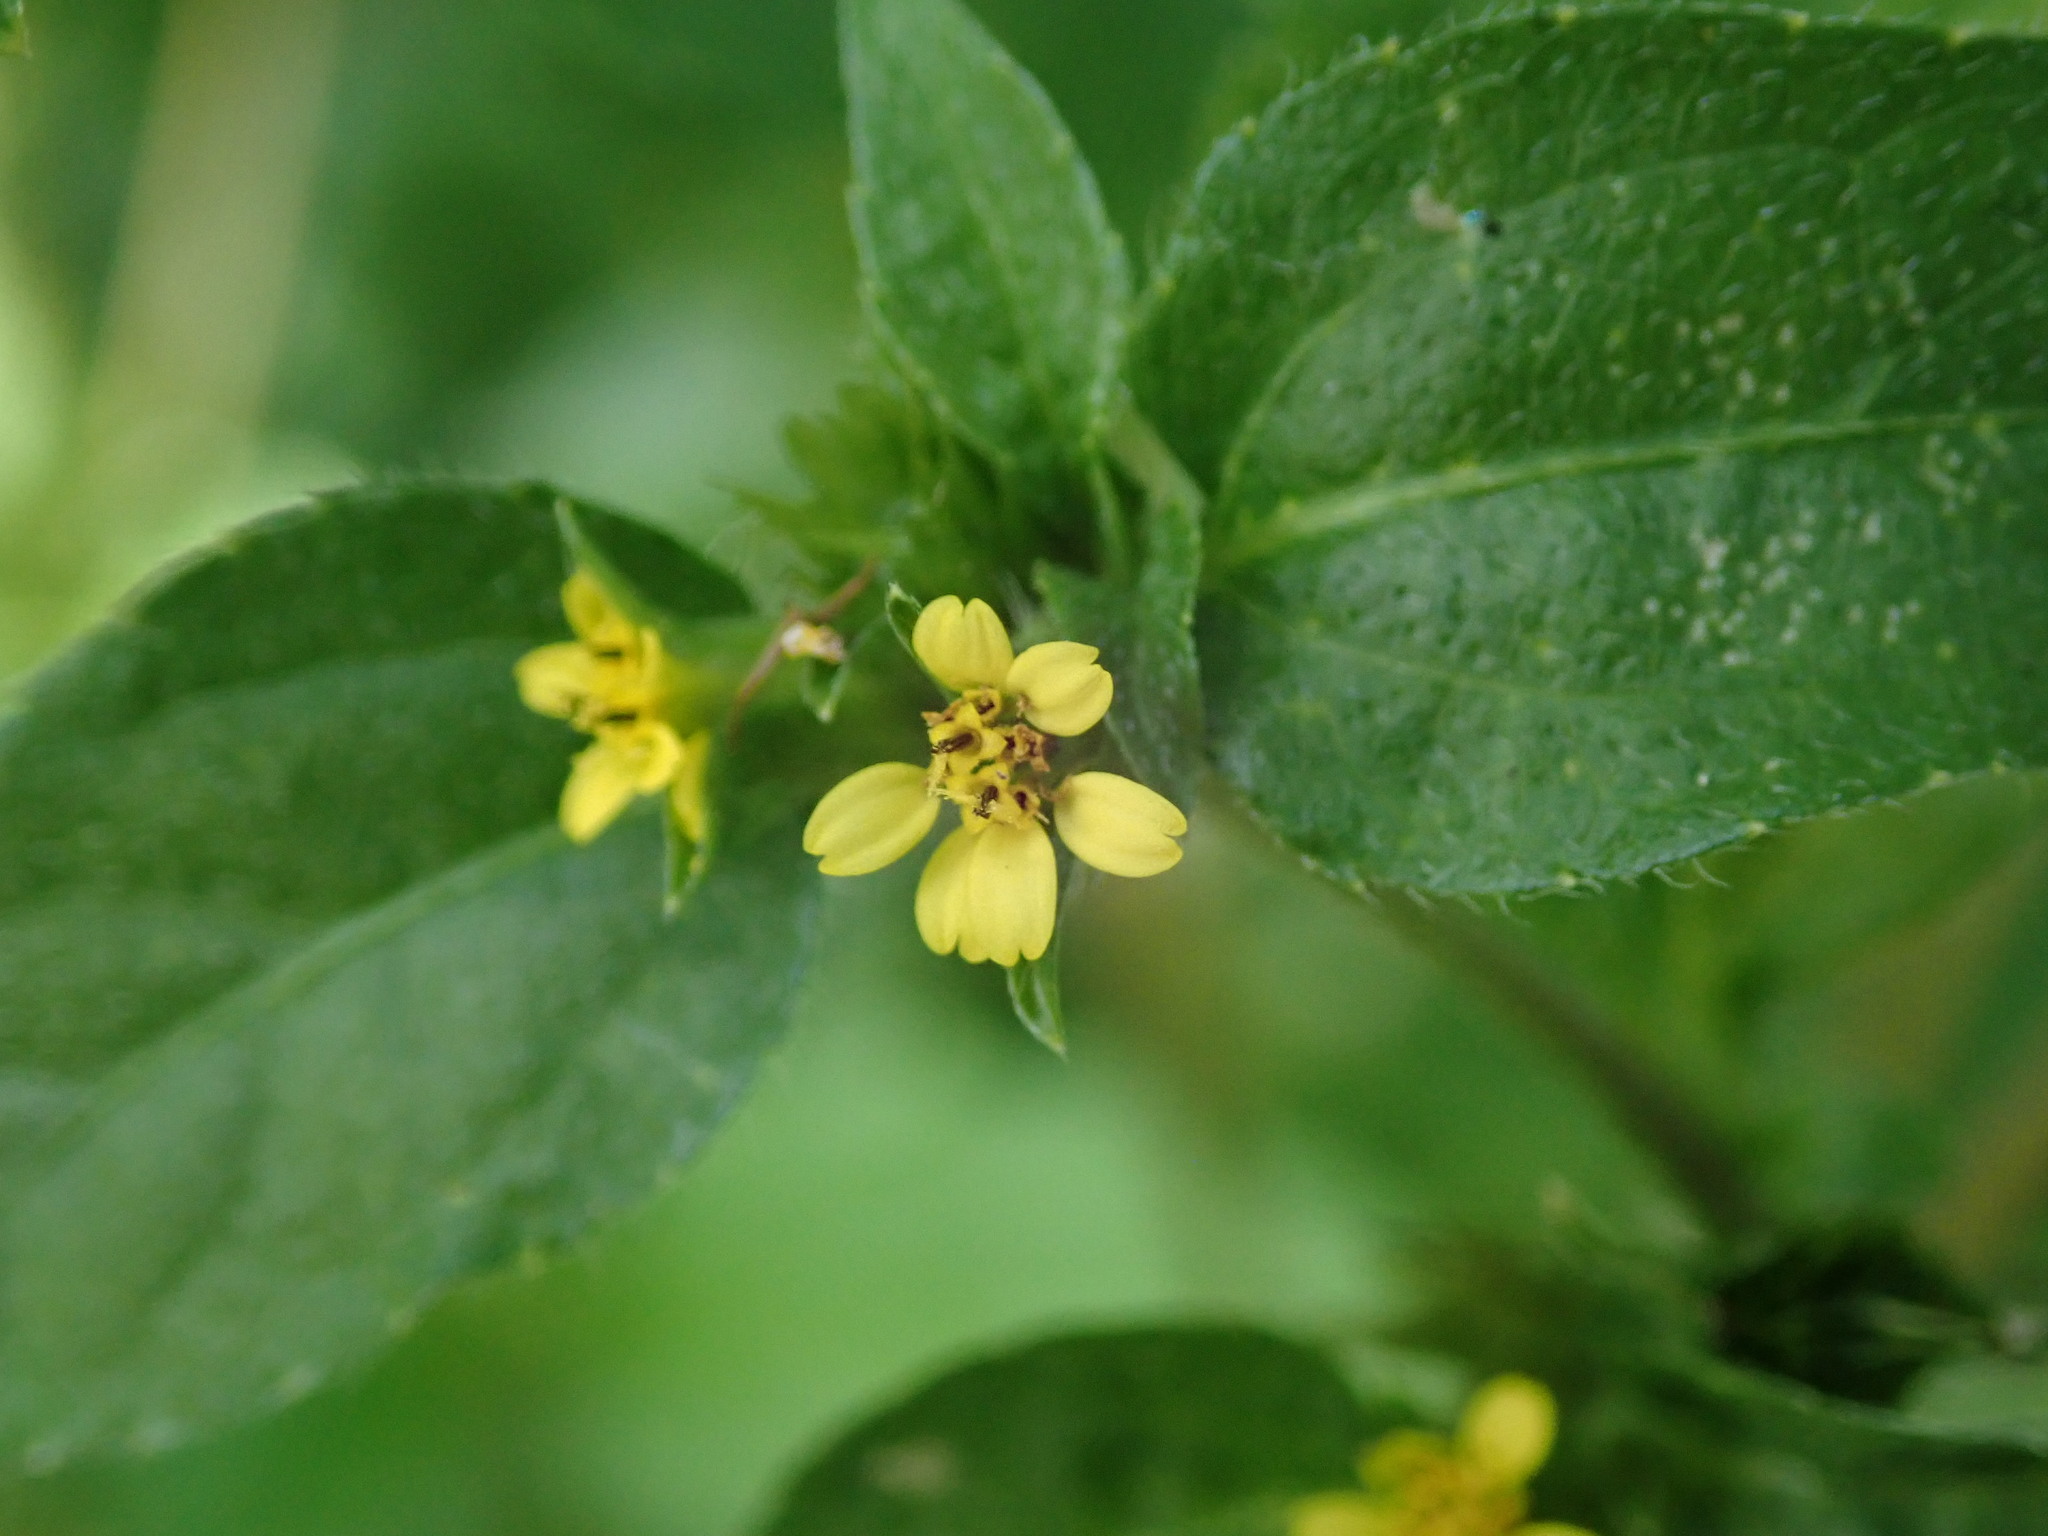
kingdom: Plantae
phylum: Tracheophyta
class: Magnoliopsida
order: Asterales
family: Asteraceae
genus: Synedrella
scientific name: Synedrella nodiflora
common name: Nodeweed
